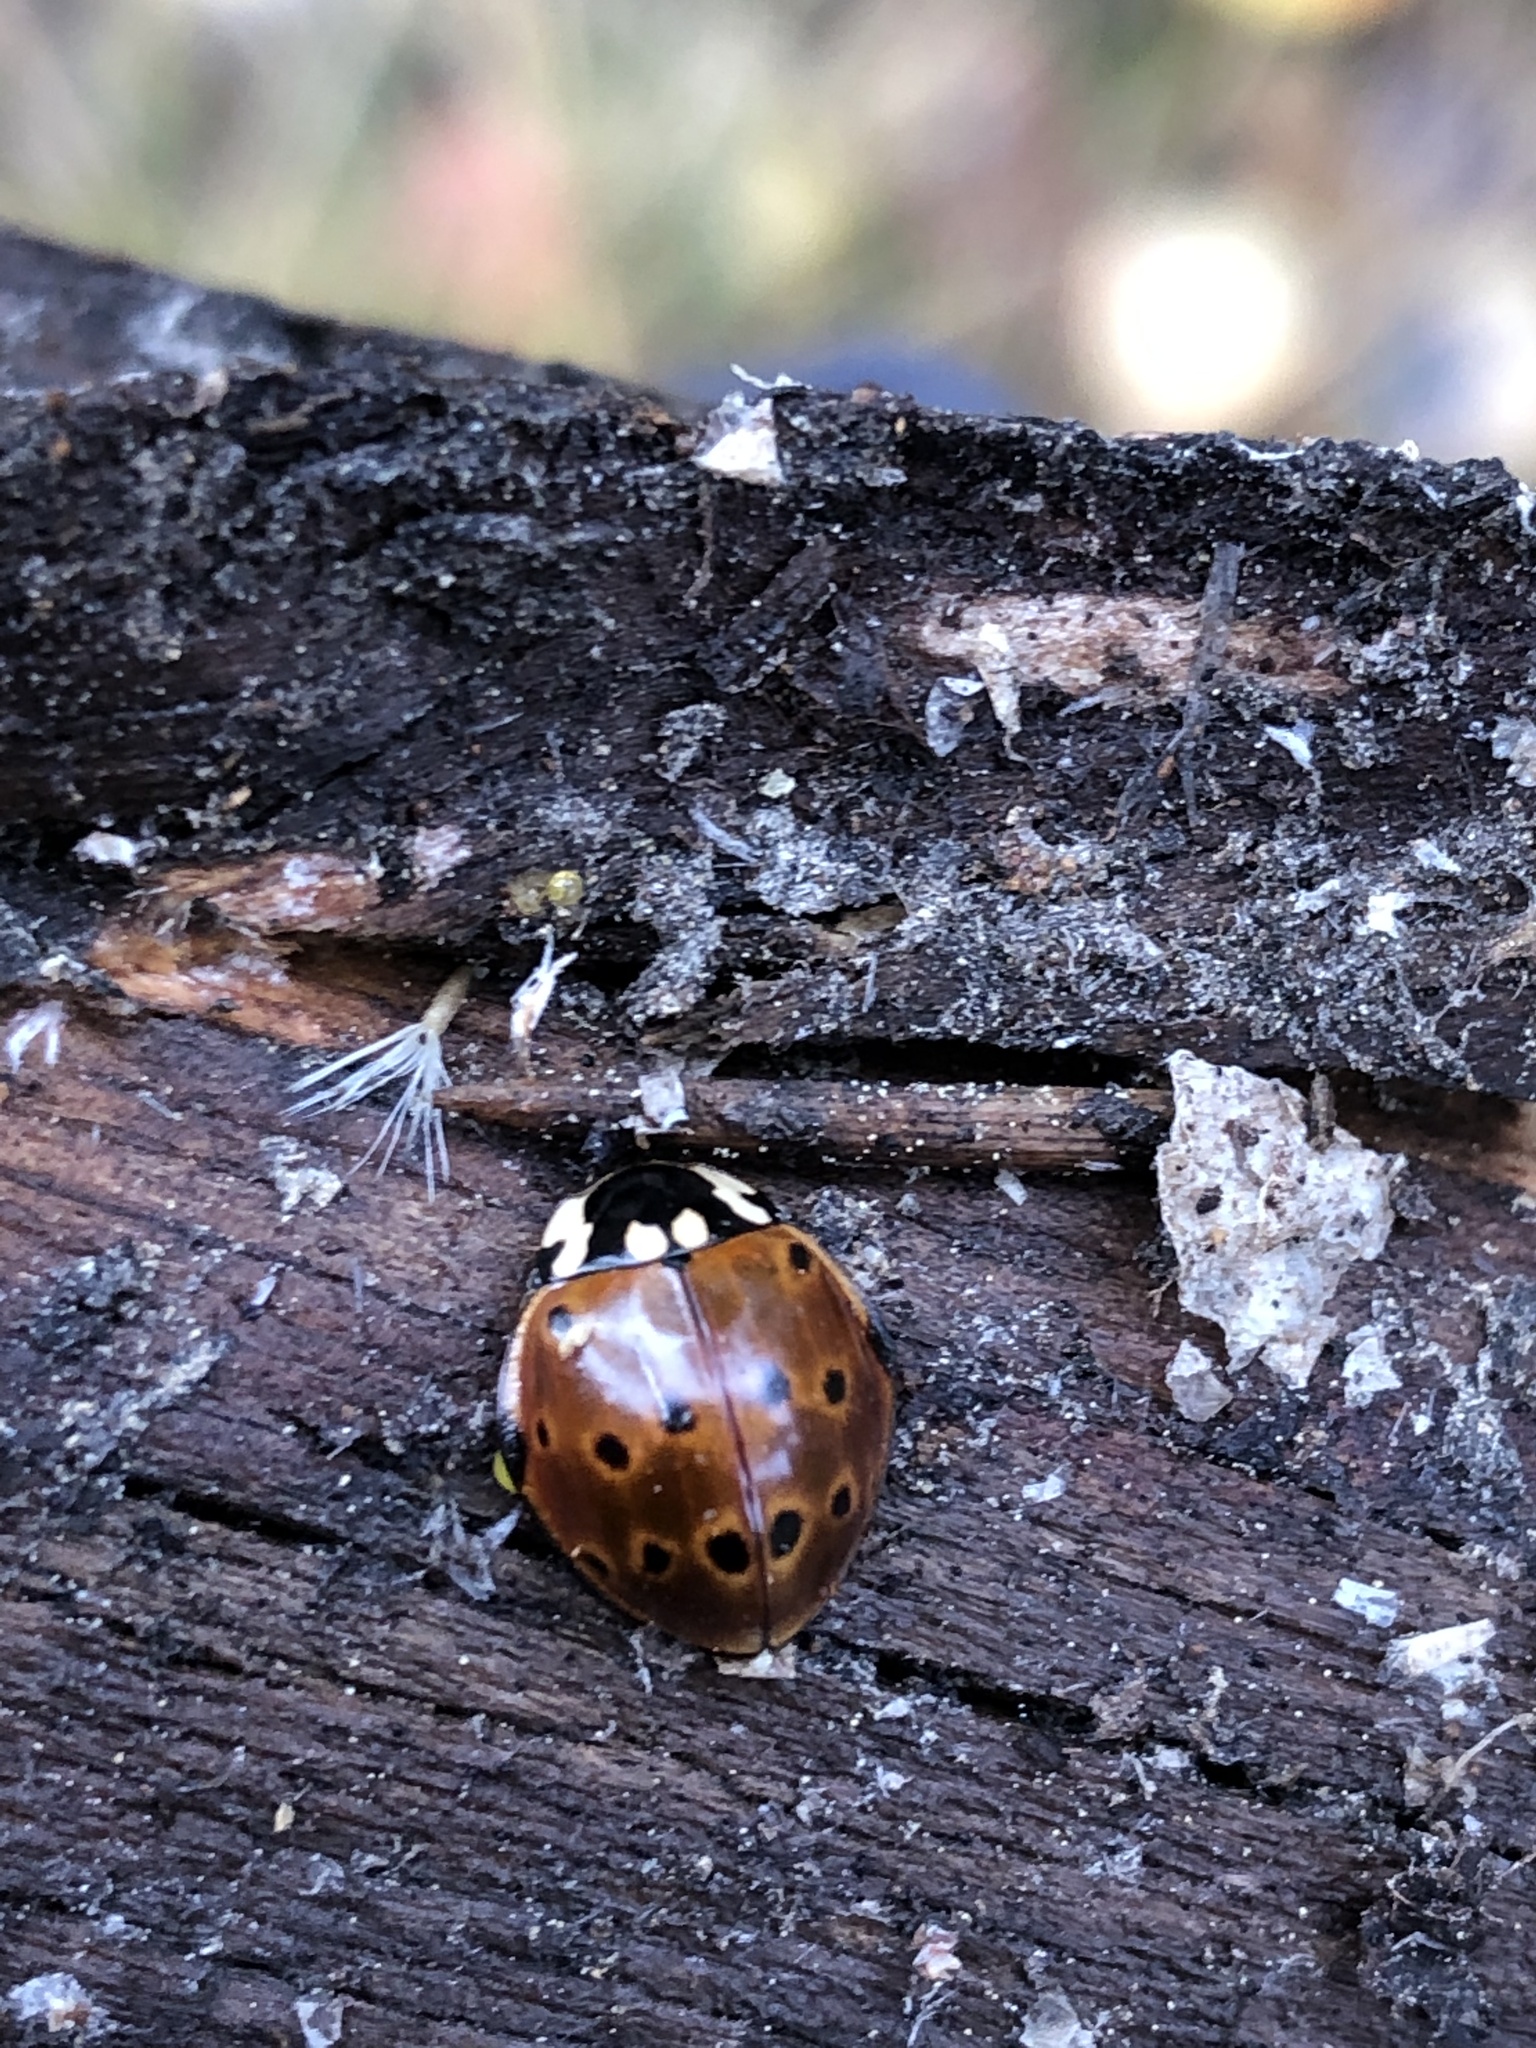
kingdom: Animalia
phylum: Arthropoda
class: Insecta
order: Coleoptera
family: Coccinellidae
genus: Anatis
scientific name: Anatis rathvoni
